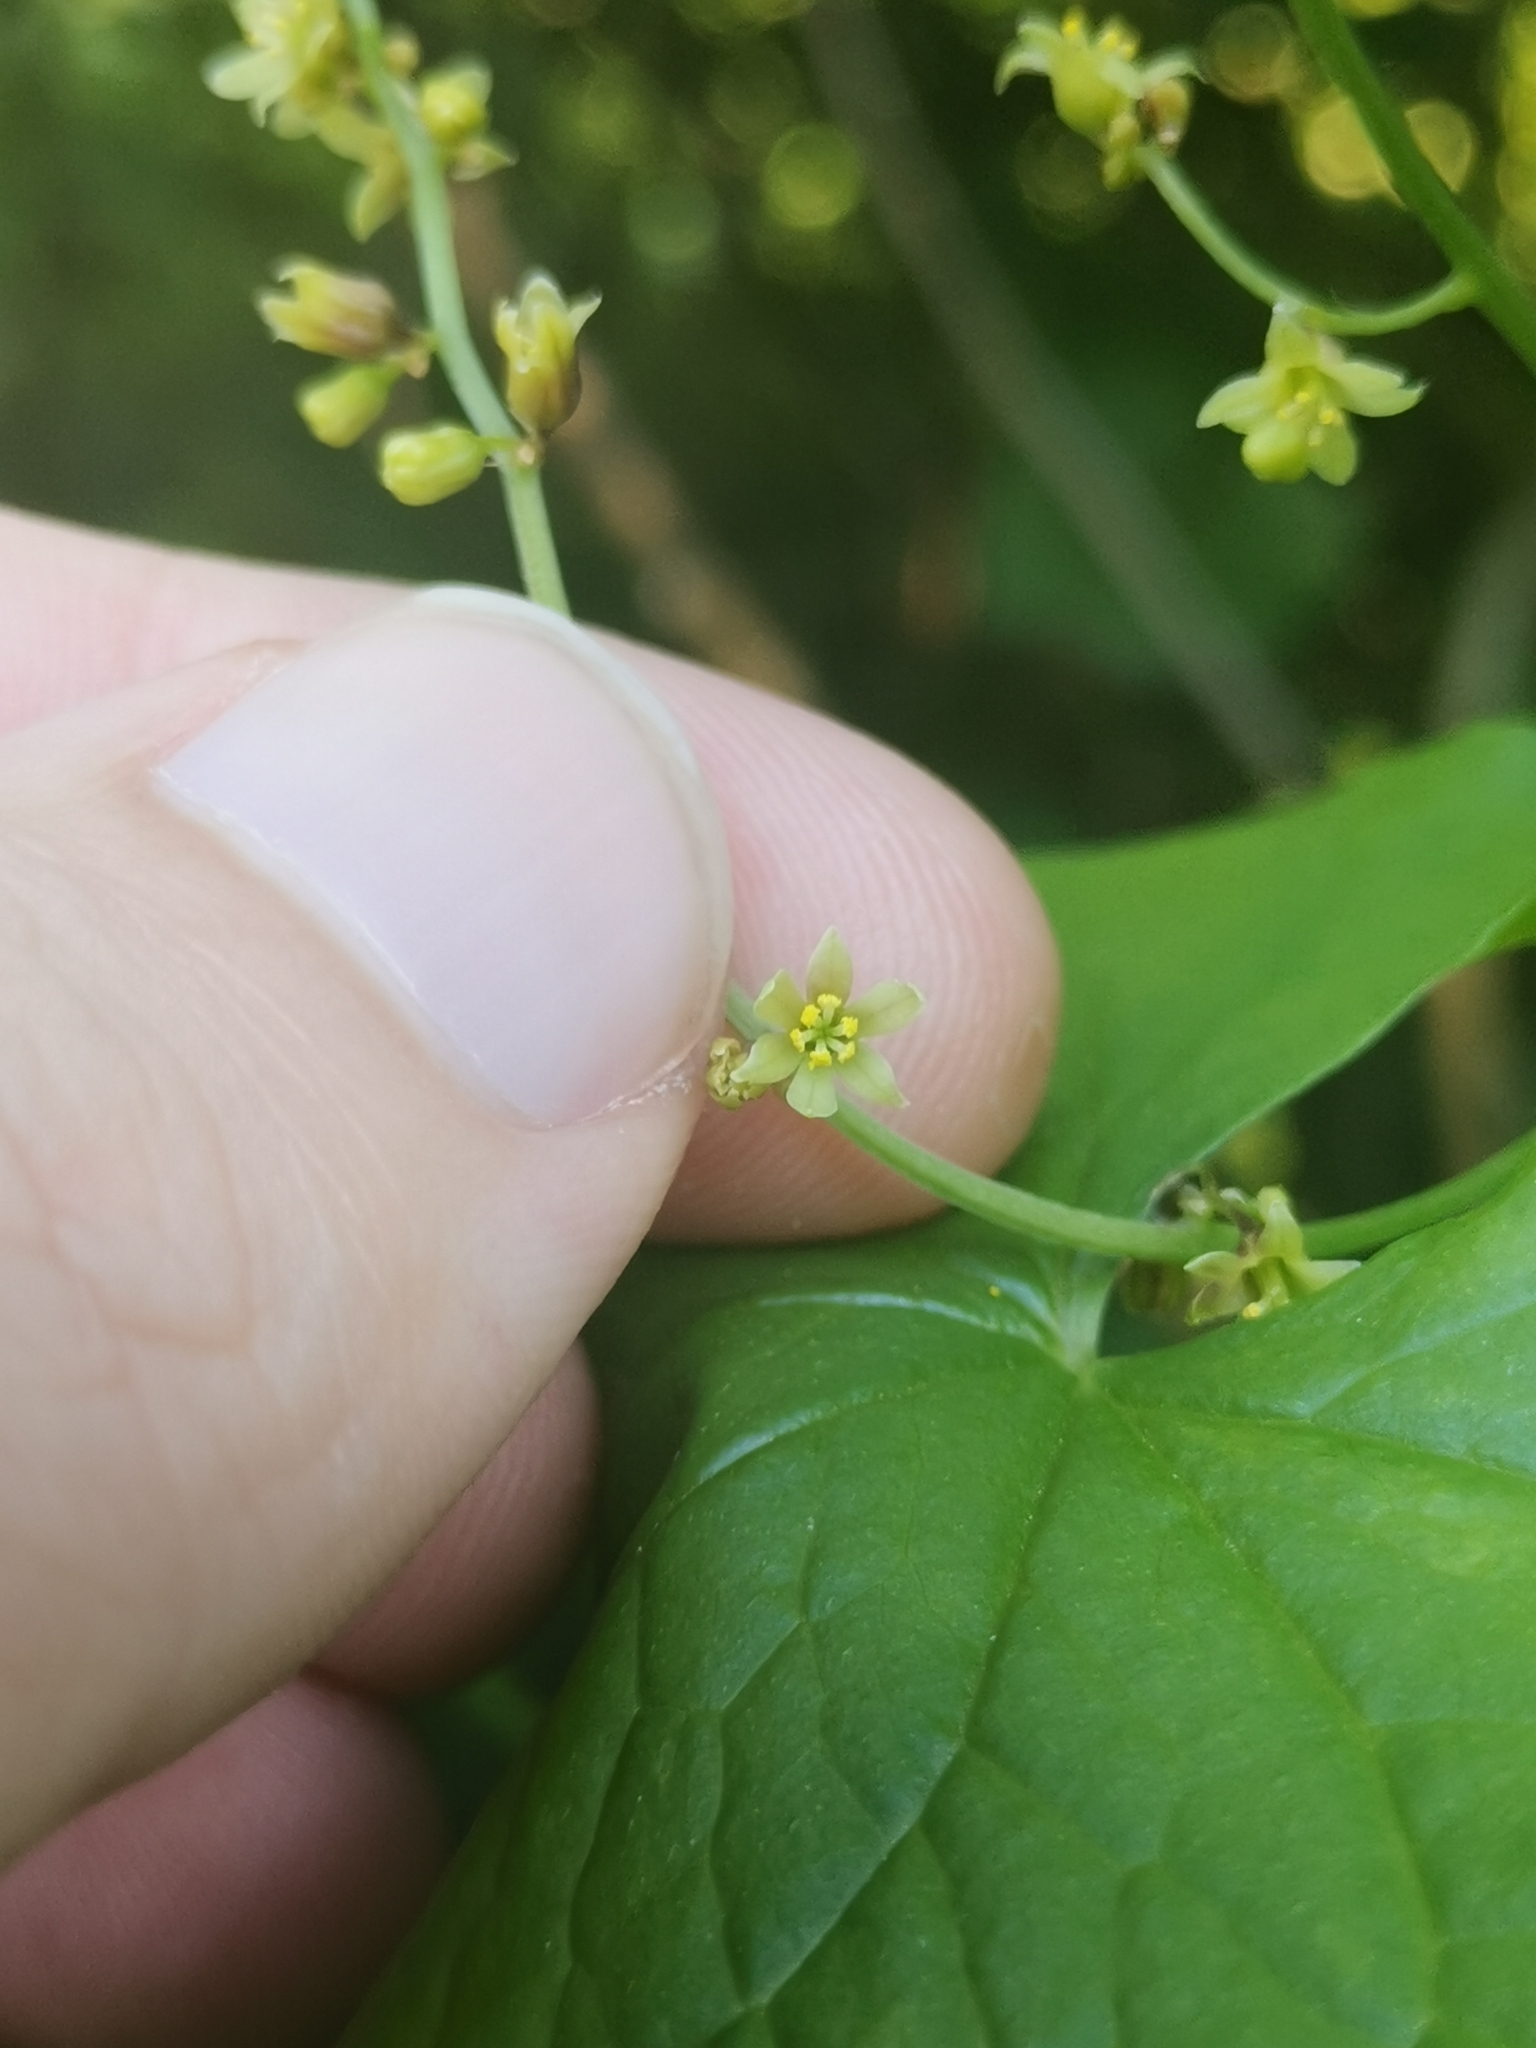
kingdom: Plantae
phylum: Tracheophyta
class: Liliopsida
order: Dioscoreales
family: Dioscoreaceae
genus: Dioscorea
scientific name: Dioscorea communis
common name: Black-bindweed
